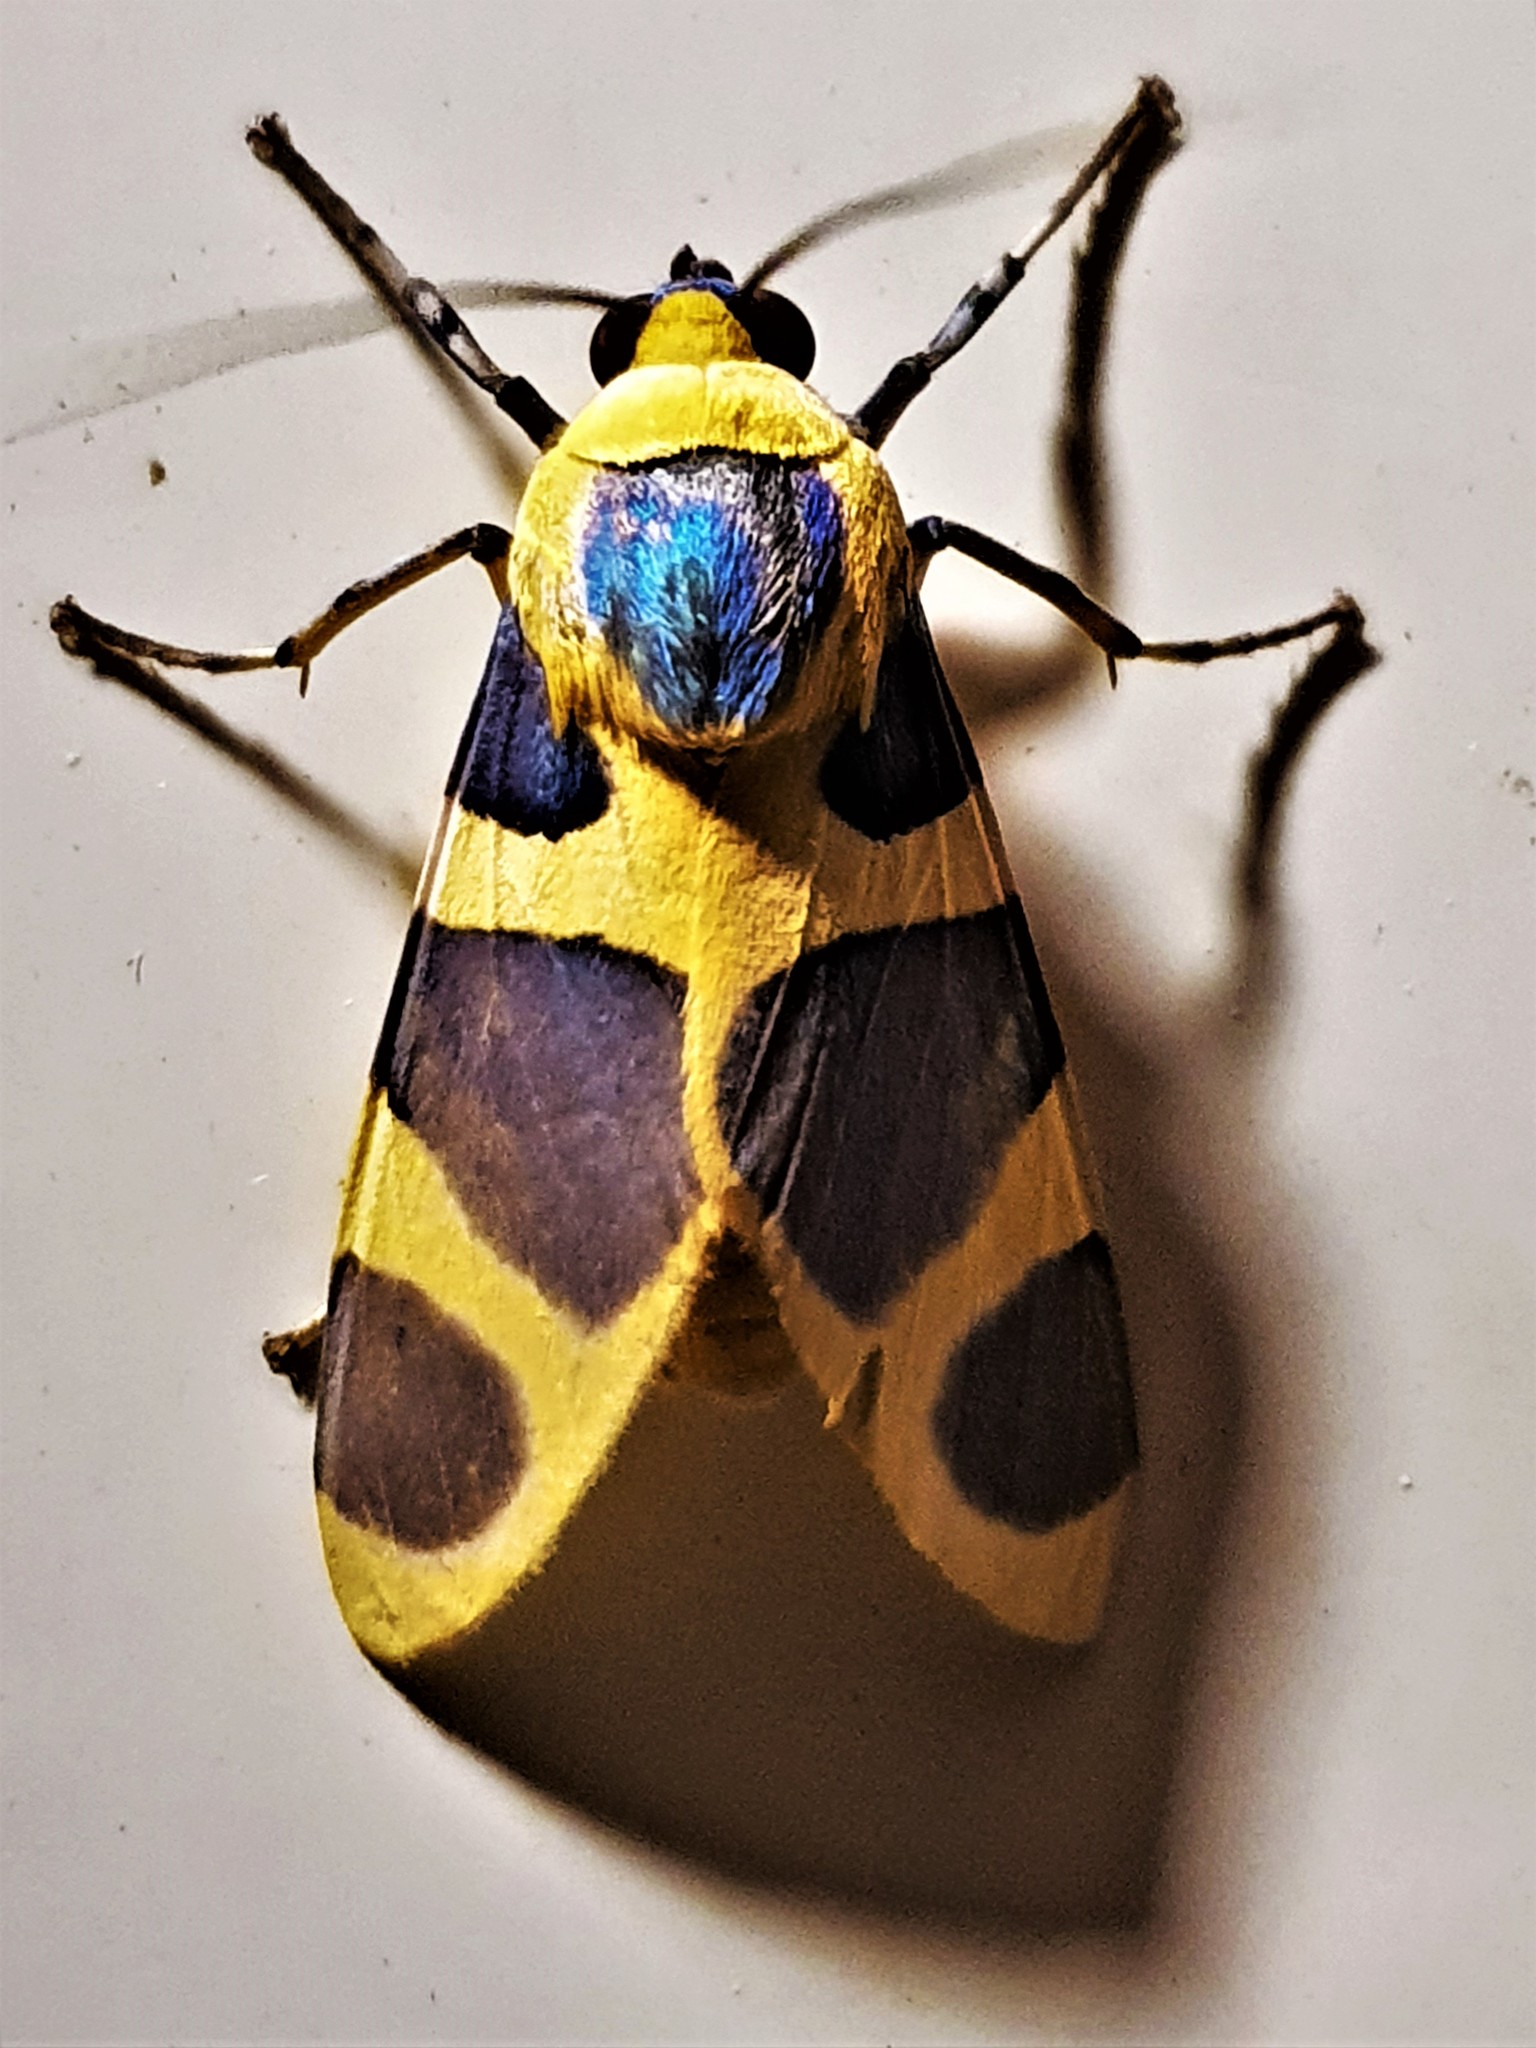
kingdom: Animalia
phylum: Arthropoda
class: Insecta
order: Lepidoptera
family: Erebidae
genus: Emurena
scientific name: Emurena lurida
